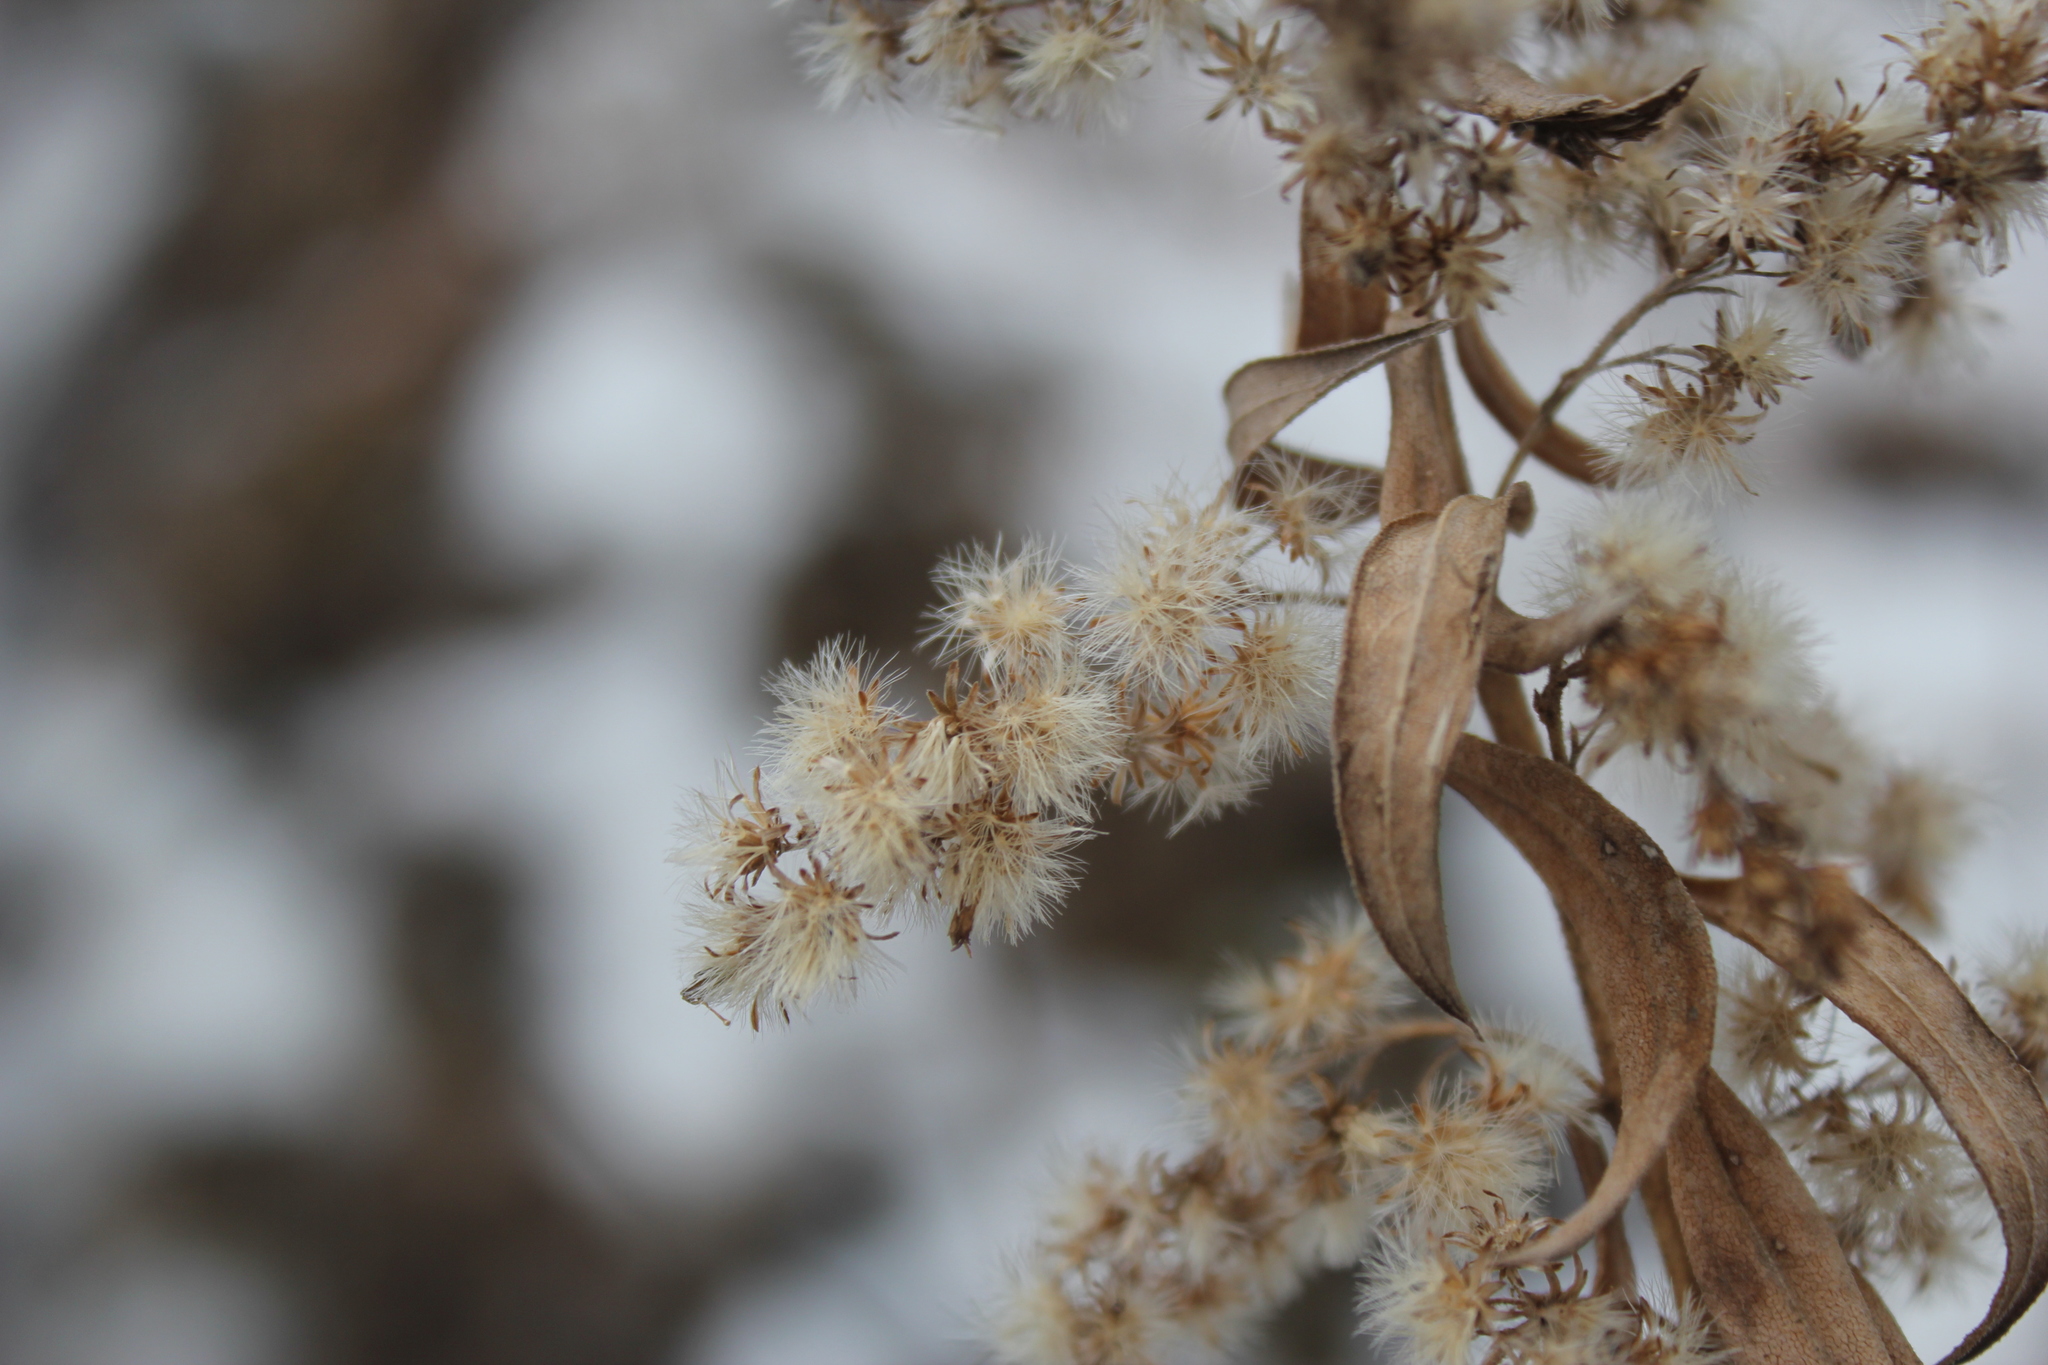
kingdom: Plantae
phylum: Tracheophyta
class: Magnoliopsida
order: Asterales
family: Asteraceae
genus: Solidago
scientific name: Solidago canadensis
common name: Canada goldenrod
